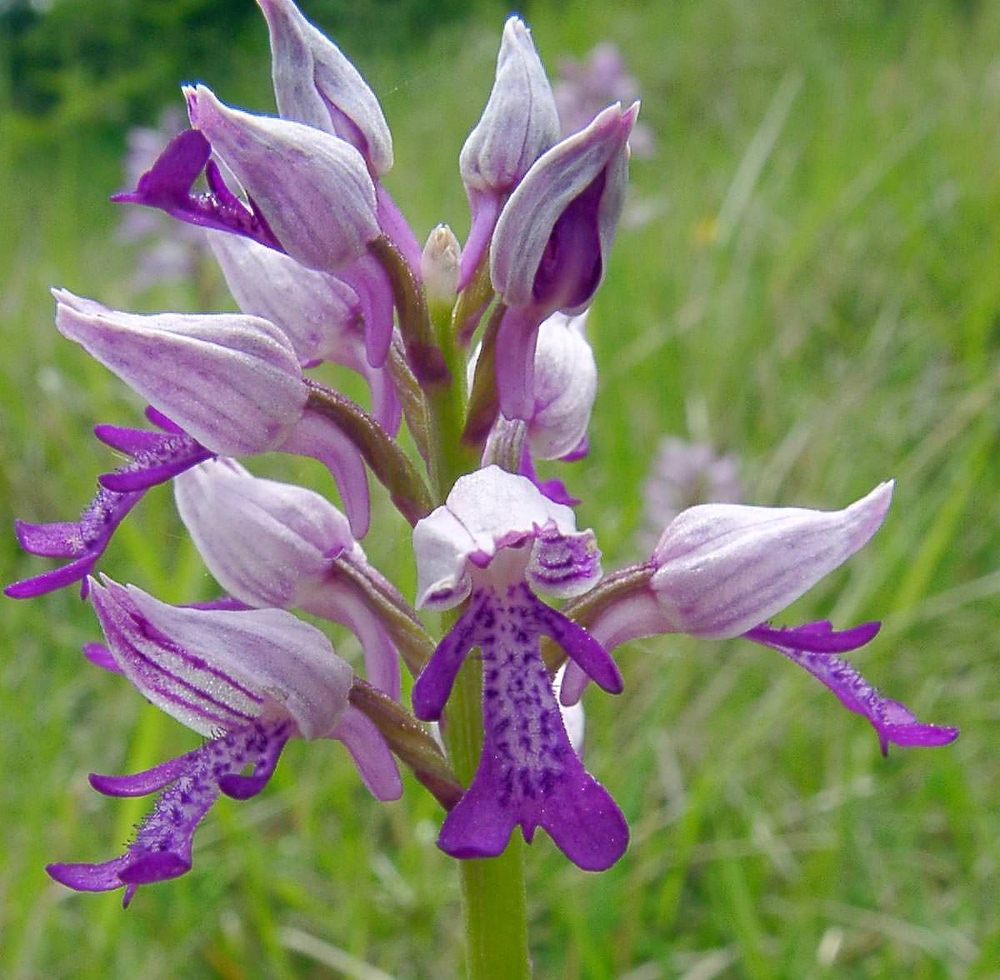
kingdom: Plantae
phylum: Tracheophyta
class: Liliopsida
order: Asparagales
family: Orchidaceae
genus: Orchis
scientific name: Orchis militaris
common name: Military orchid
